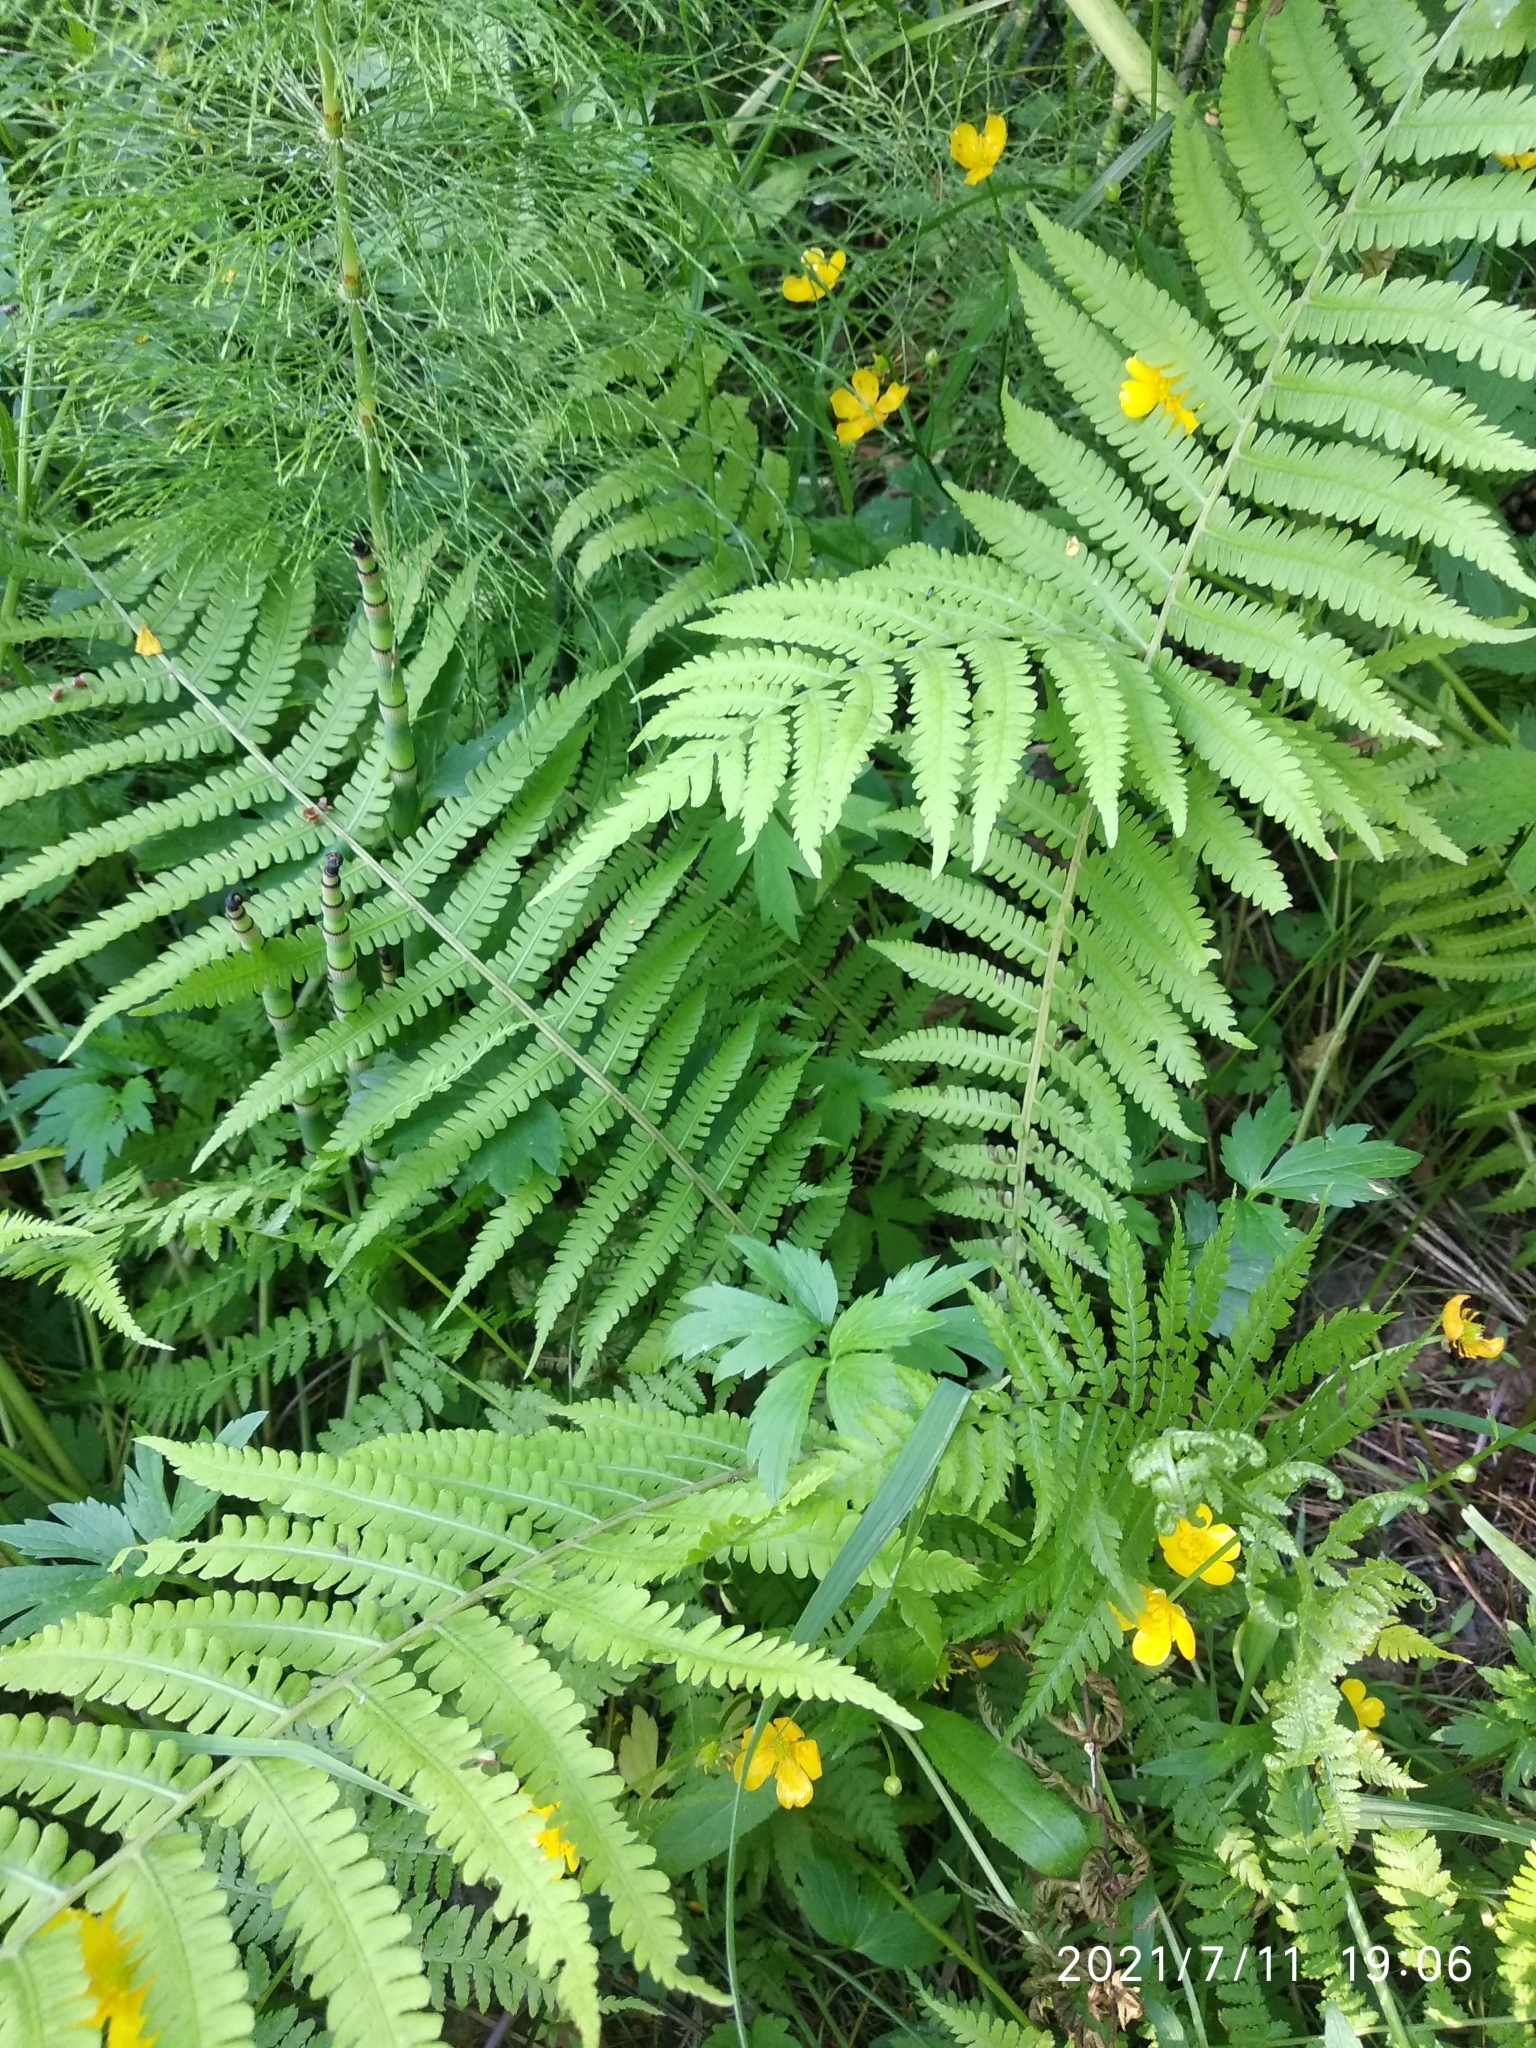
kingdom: Plantae
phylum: Tracheophyta
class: Polypodiopsida
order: Polypodiales
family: Onocleaceae
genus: Matteuccia
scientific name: Matteuccia struthiopteris
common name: Ostrich fern
